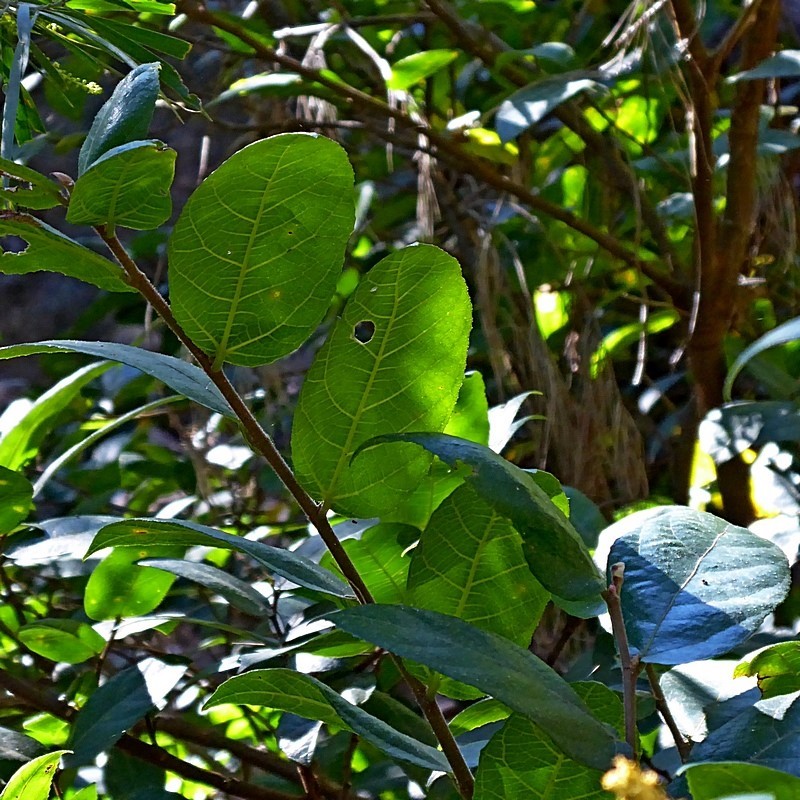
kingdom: Plantae
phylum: Tracheophyta
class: Magnoliopsida
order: Rosales
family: Moraceae
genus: Ficus
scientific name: Ficus coronata
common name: Creek sandpaper fig
